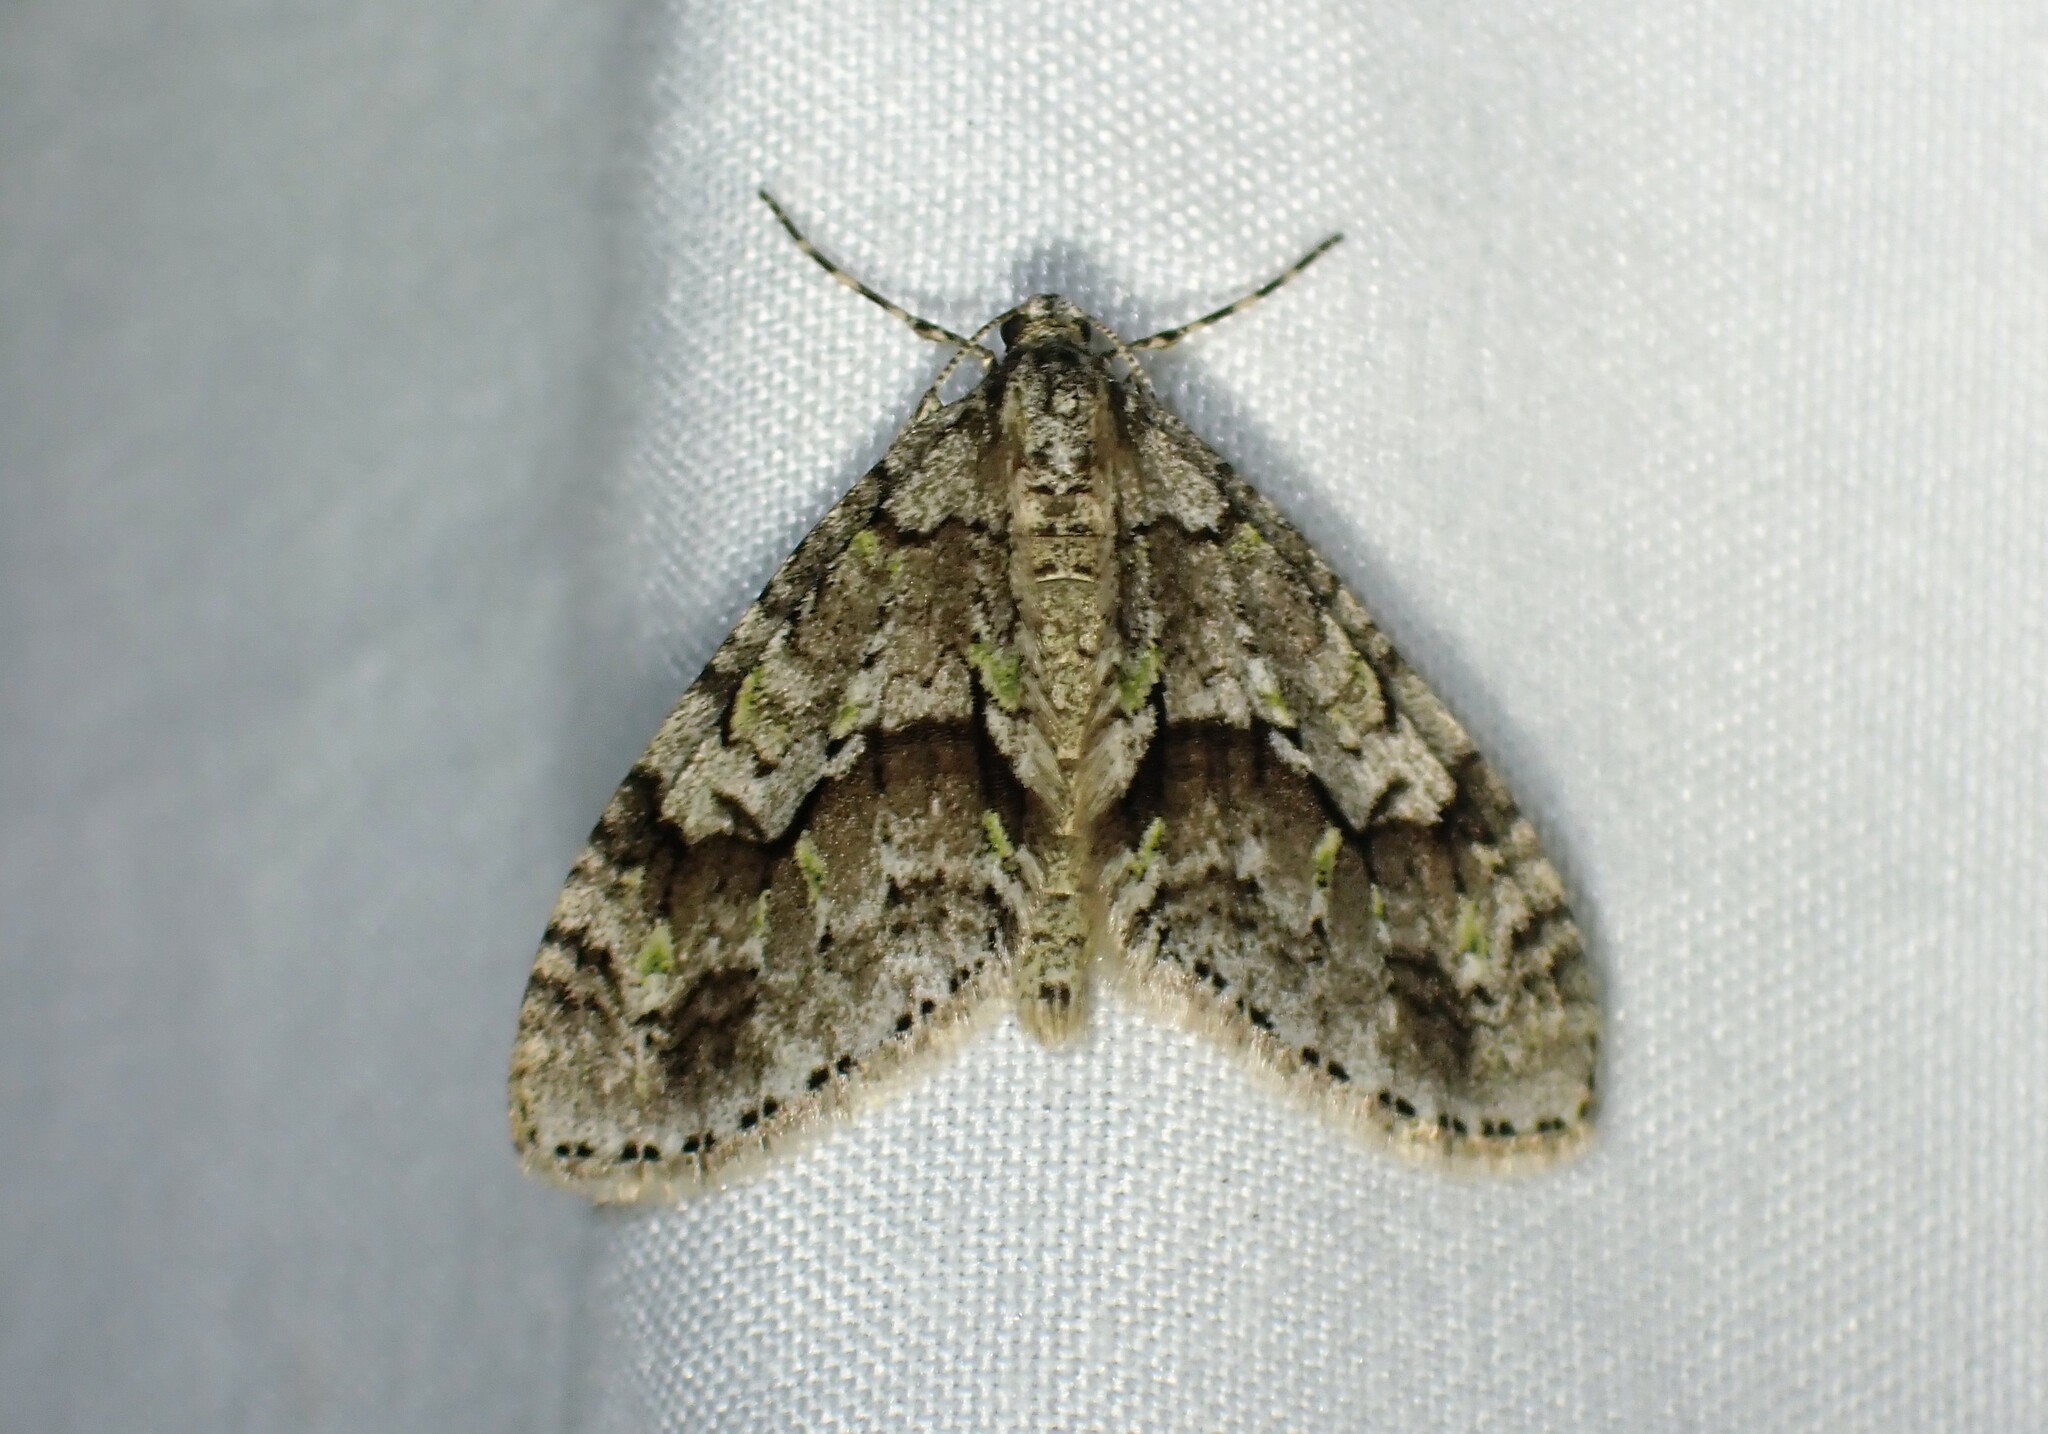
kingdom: Animalia
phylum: Arthropoda
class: Insecta
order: Lepidoptera
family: Geometridae
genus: Cladara
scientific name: Cladara limitaria
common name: Mottled gray carpet
